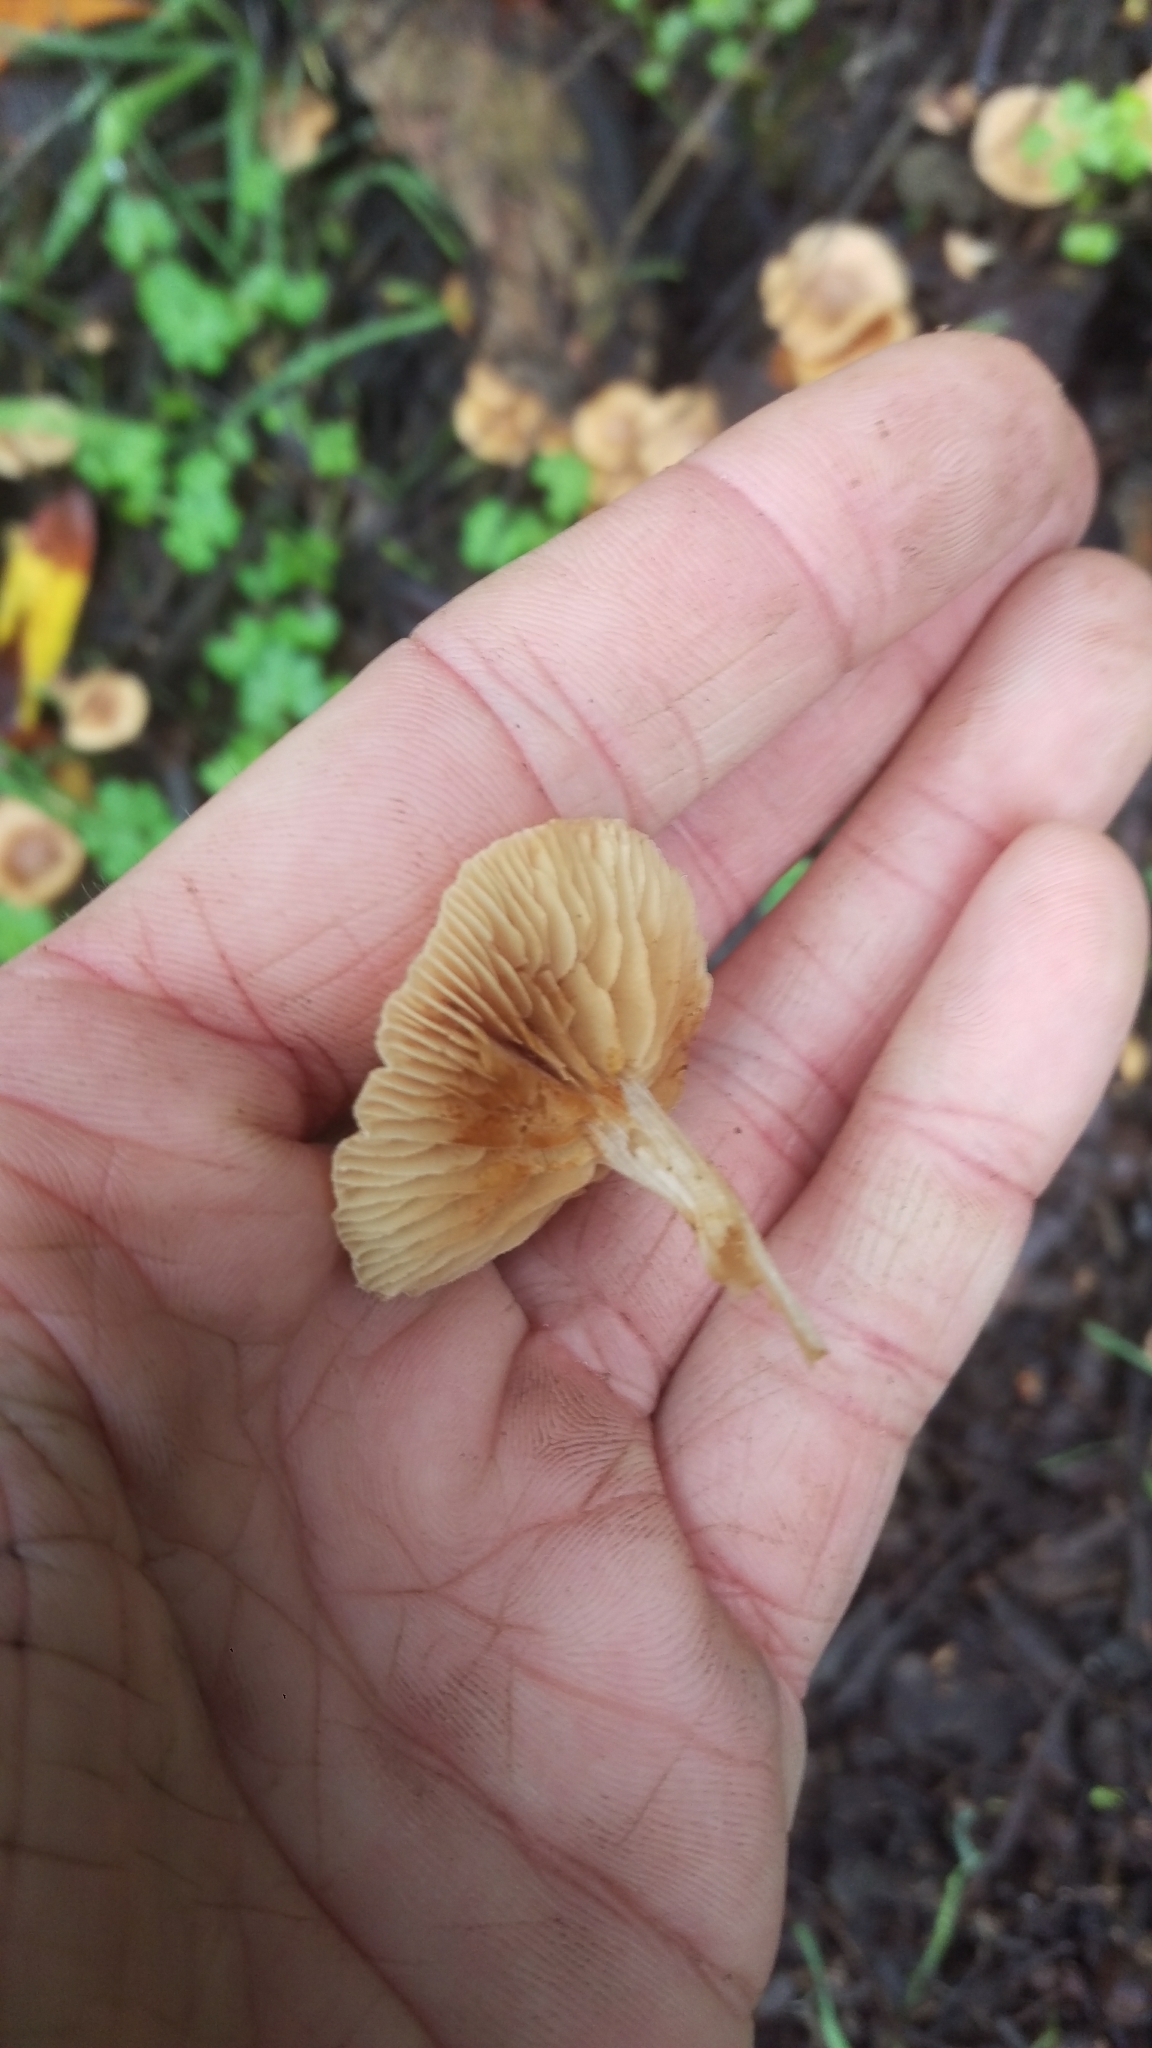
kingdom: Fungi
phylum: Basidiomycota
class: Agaricomycetes
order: Agaricales
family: Tubariaceae
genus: Tubaria
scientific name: Tubaria furfuracea
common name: Scurfy twiglet
